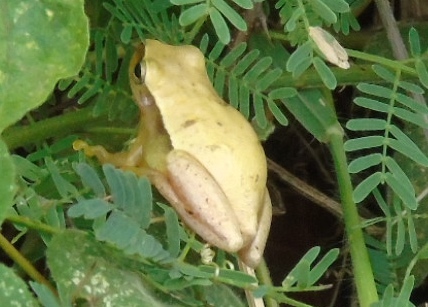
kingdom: Animalia
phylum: Chordata
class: Amphibia
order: Anura
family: Hylidae
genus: Tlalocohyla
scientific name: Tlalocohyla smithii
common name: Dwarf mexican treefrog
